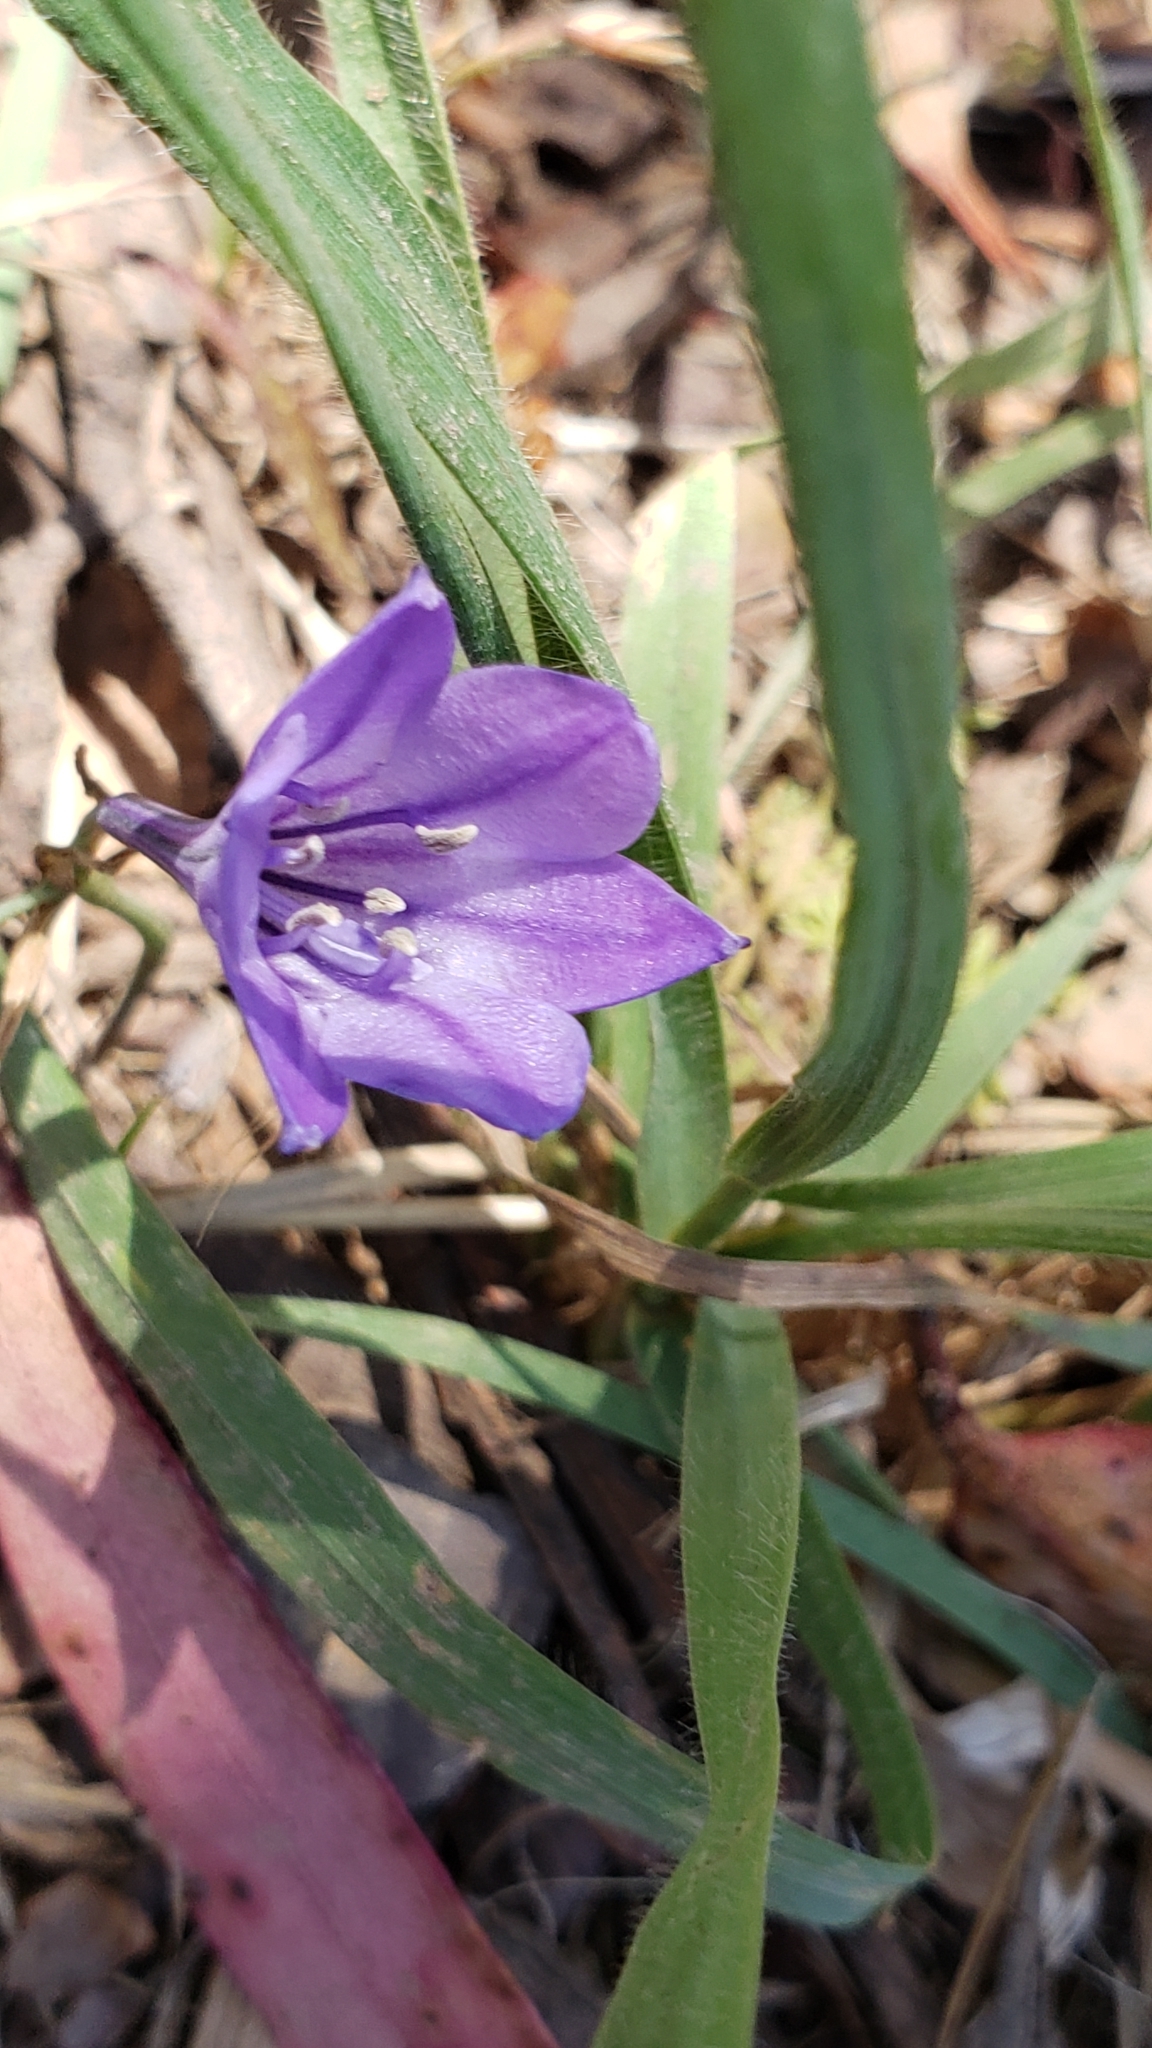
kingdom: Plantae
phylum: Tracheophyta
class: Liliopsida
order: Asparagales
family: Asparagaceae
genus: Triteleia
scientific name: Triteleia laxa
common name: Triplet-lily
